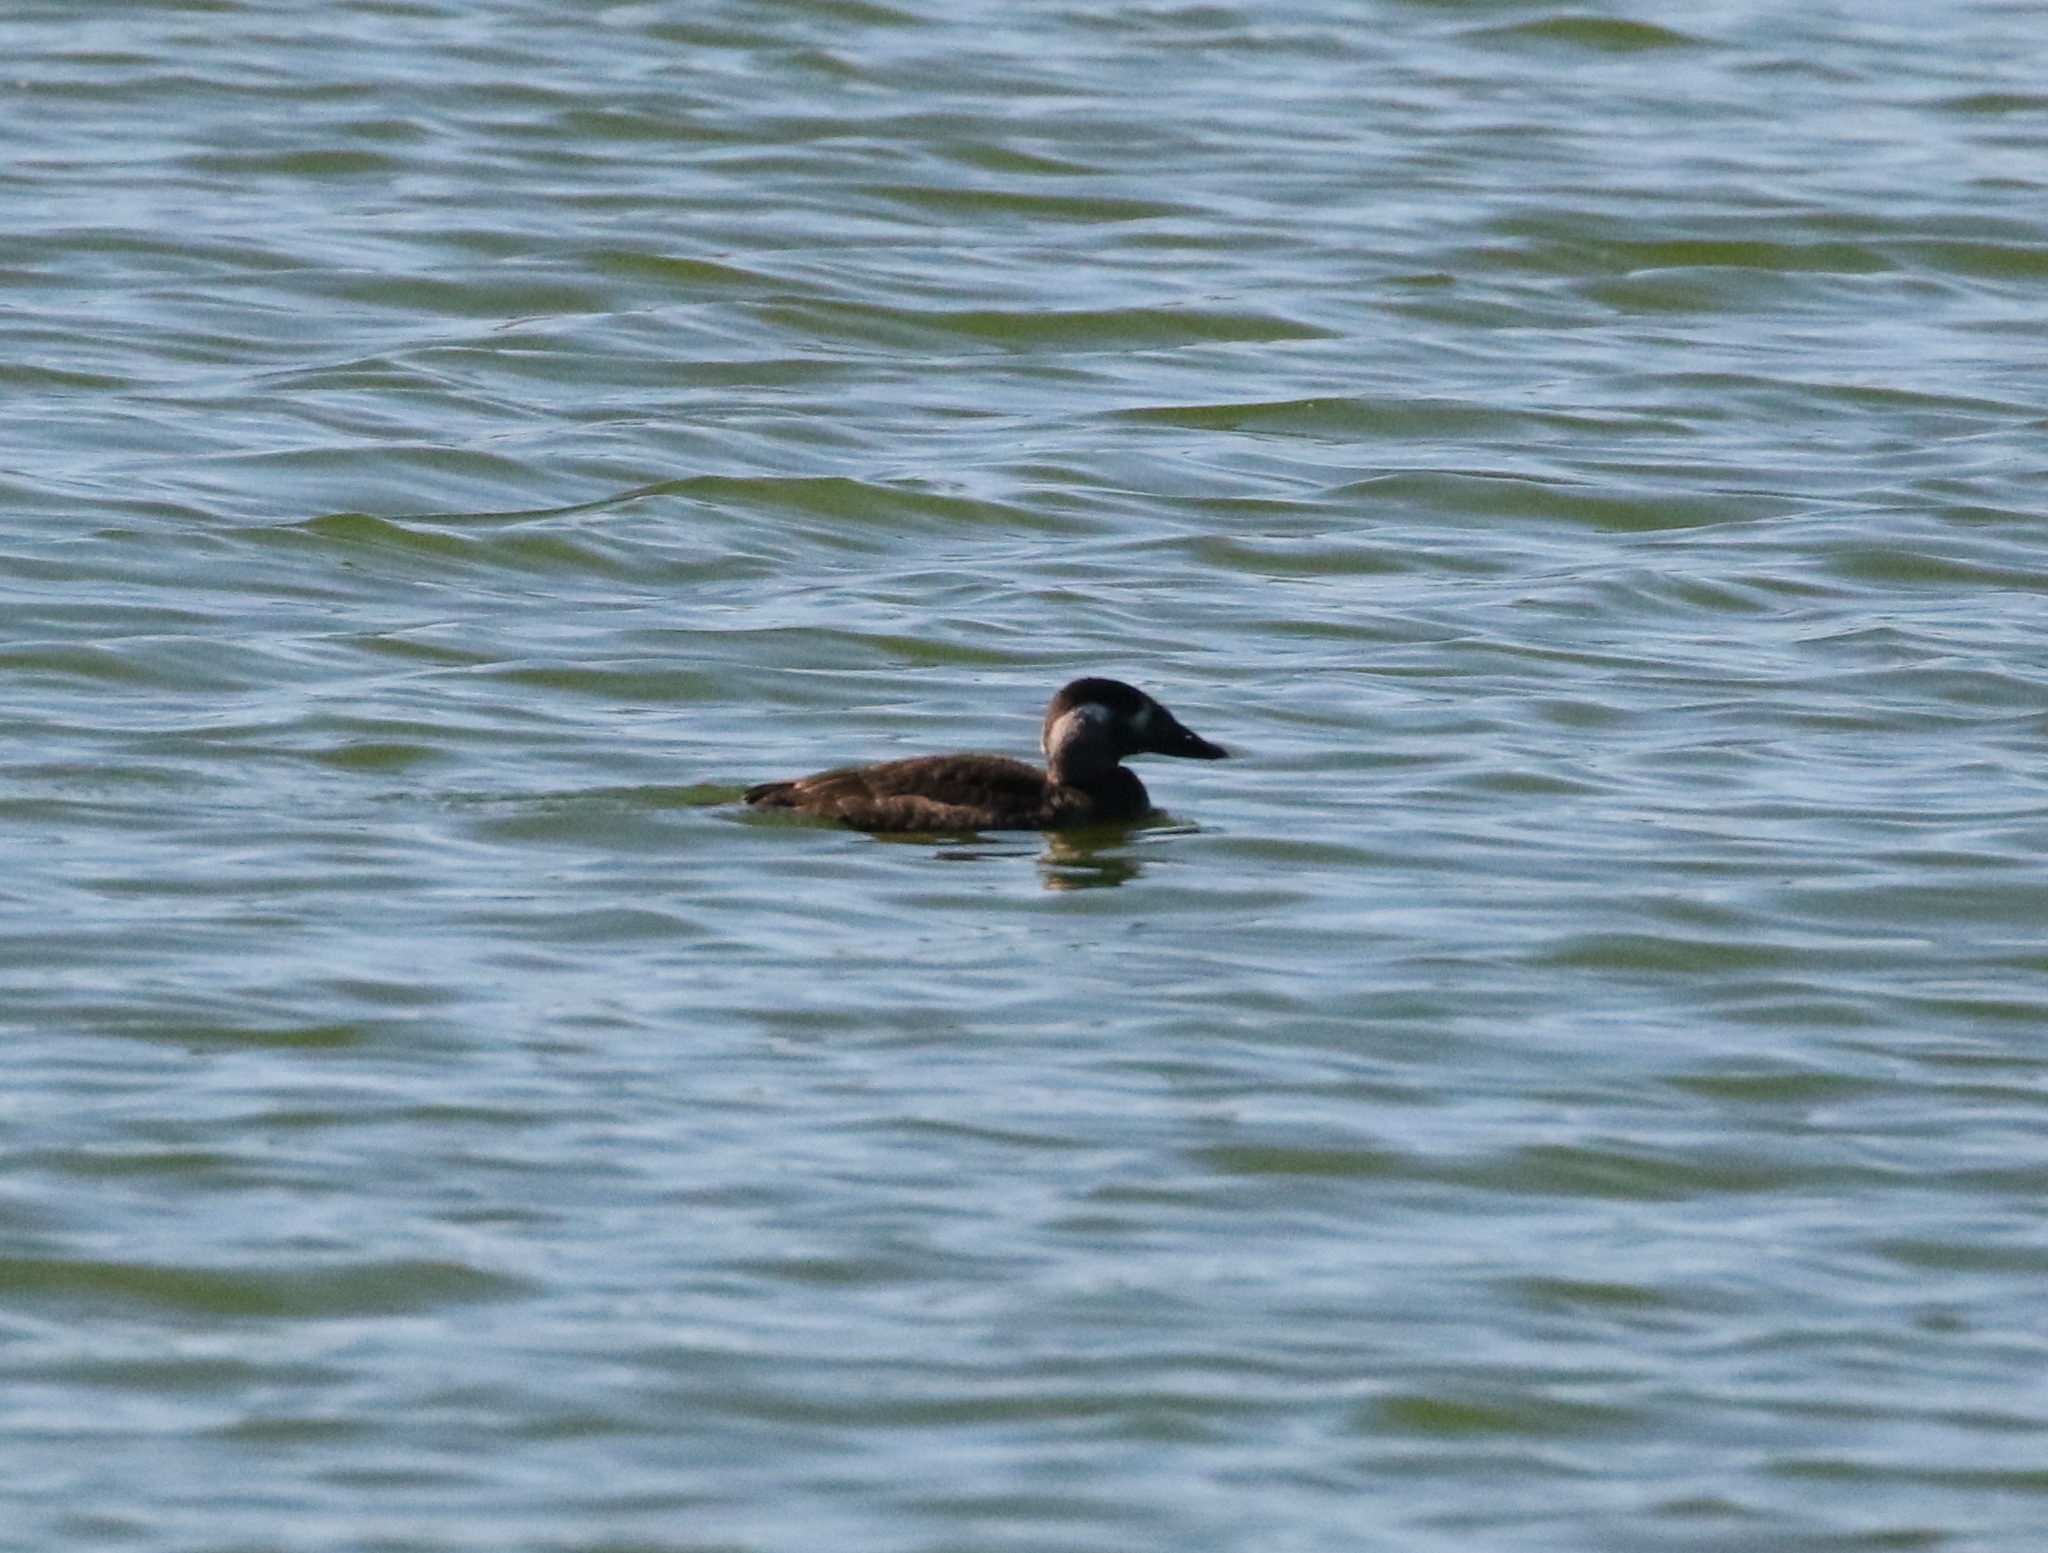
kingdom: Animalia
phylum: Chordata
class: Aves
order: Anseriformes
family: Anatidae
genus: Melanitta
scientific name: Melanitta perspicillata
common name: Surf scoter
